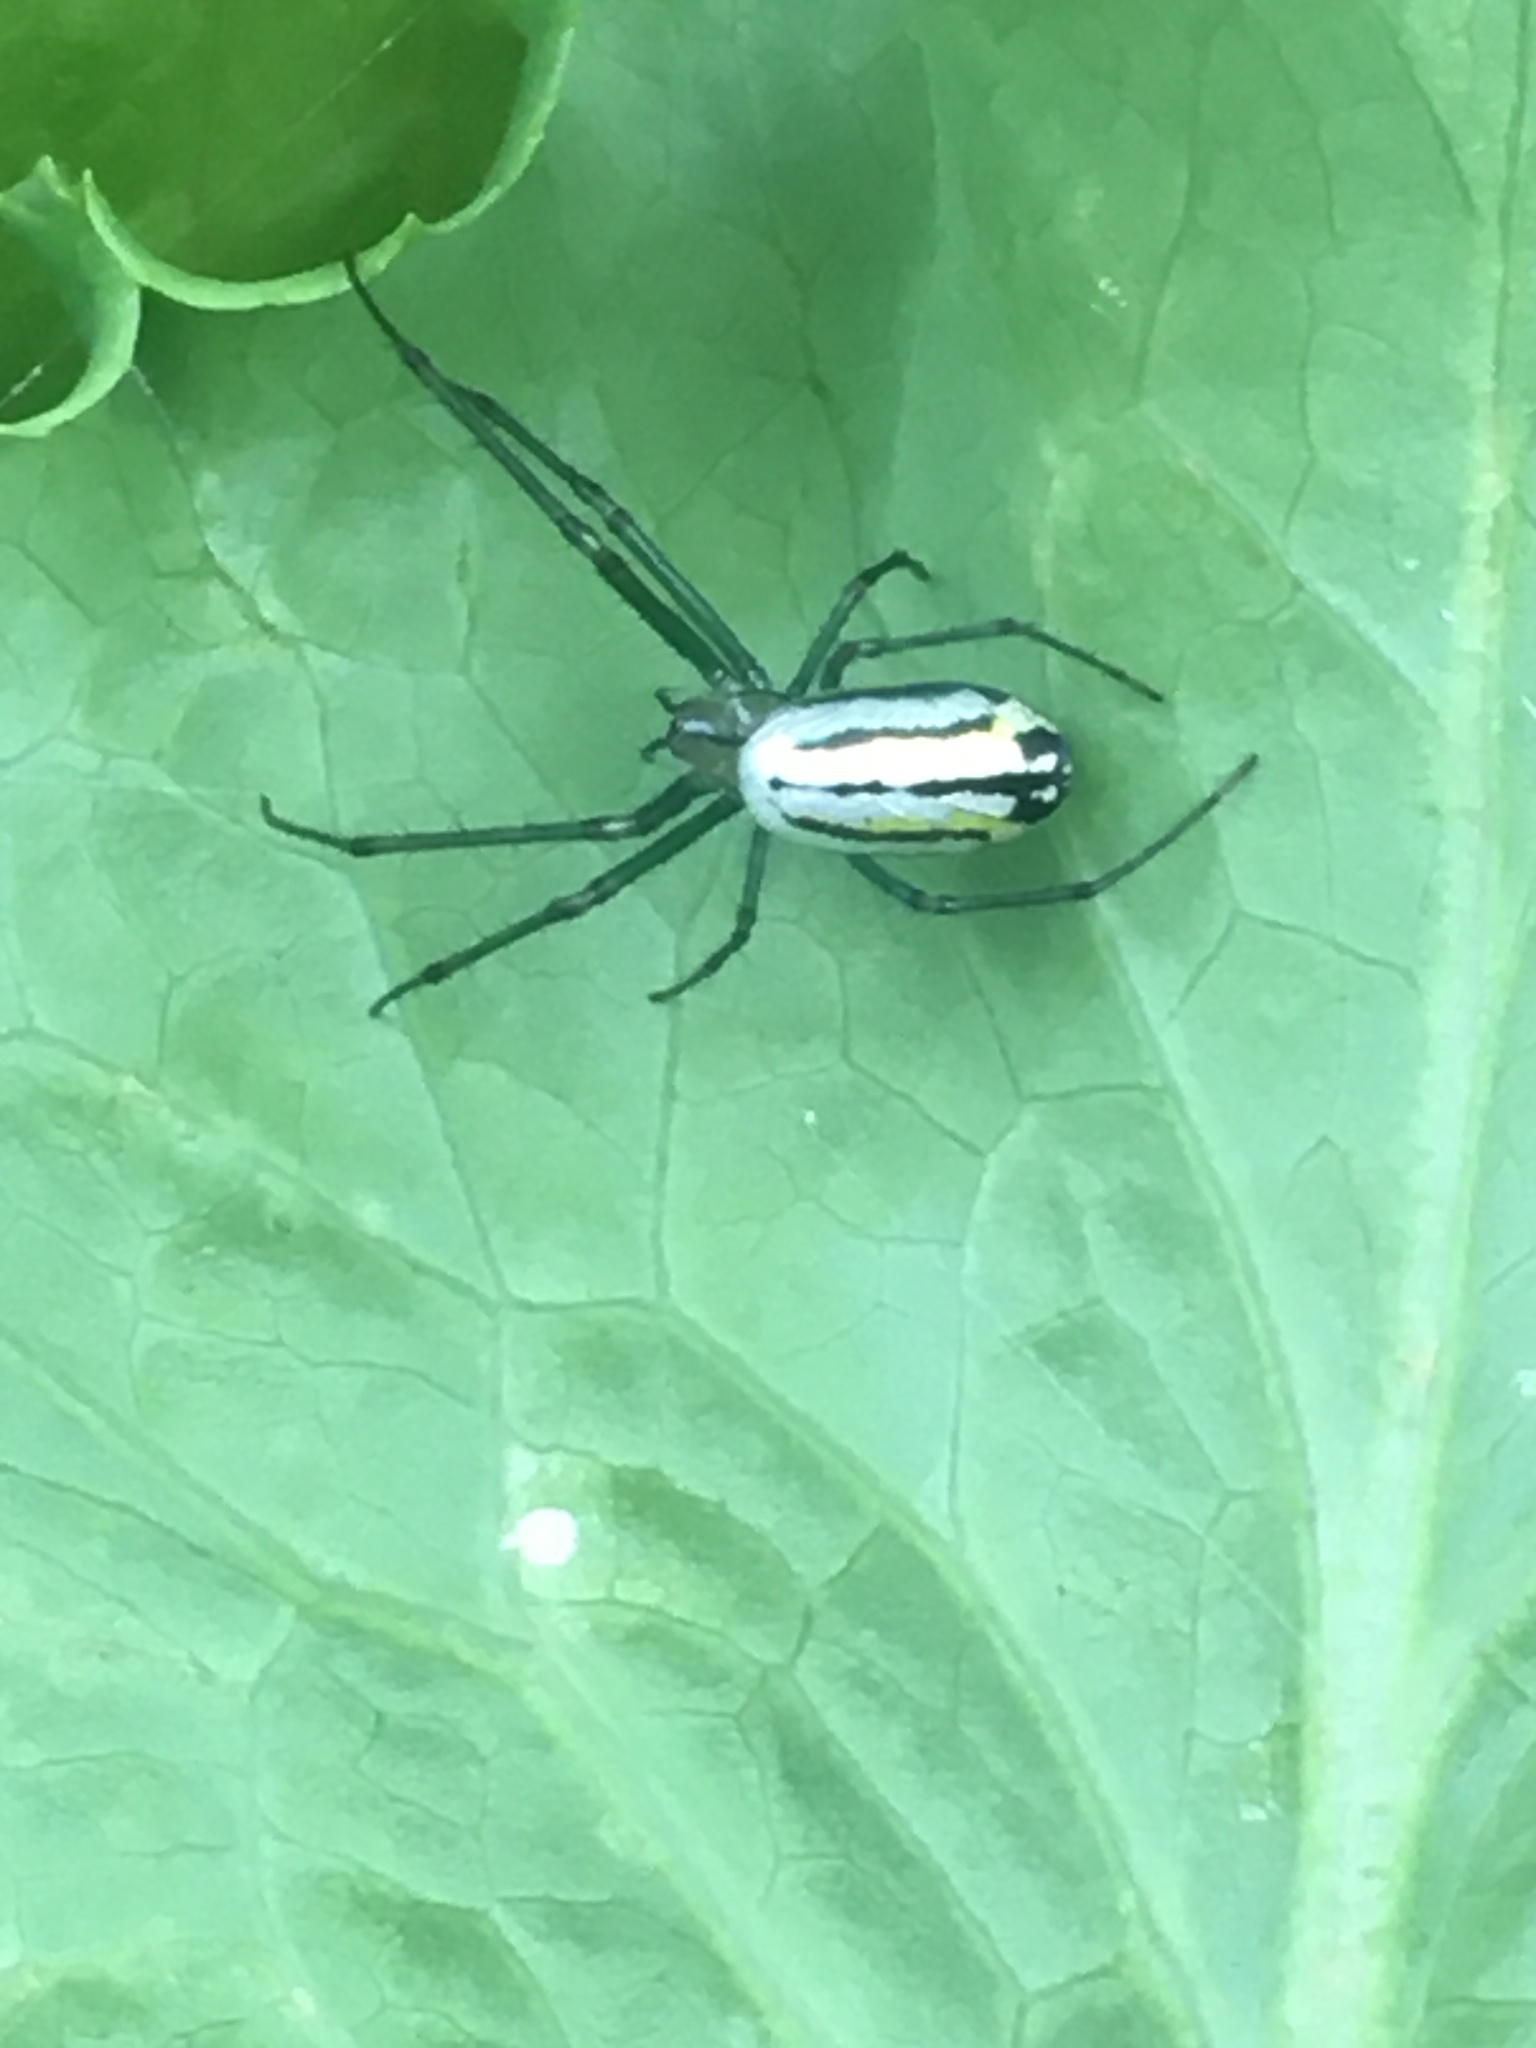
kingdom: Animalia
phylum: Arthropoda
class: Arachnida
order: Araneae
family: Tetragnathidae
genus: Leucauge
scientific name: Leucauge venusta
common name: Longjawed orb weavers
